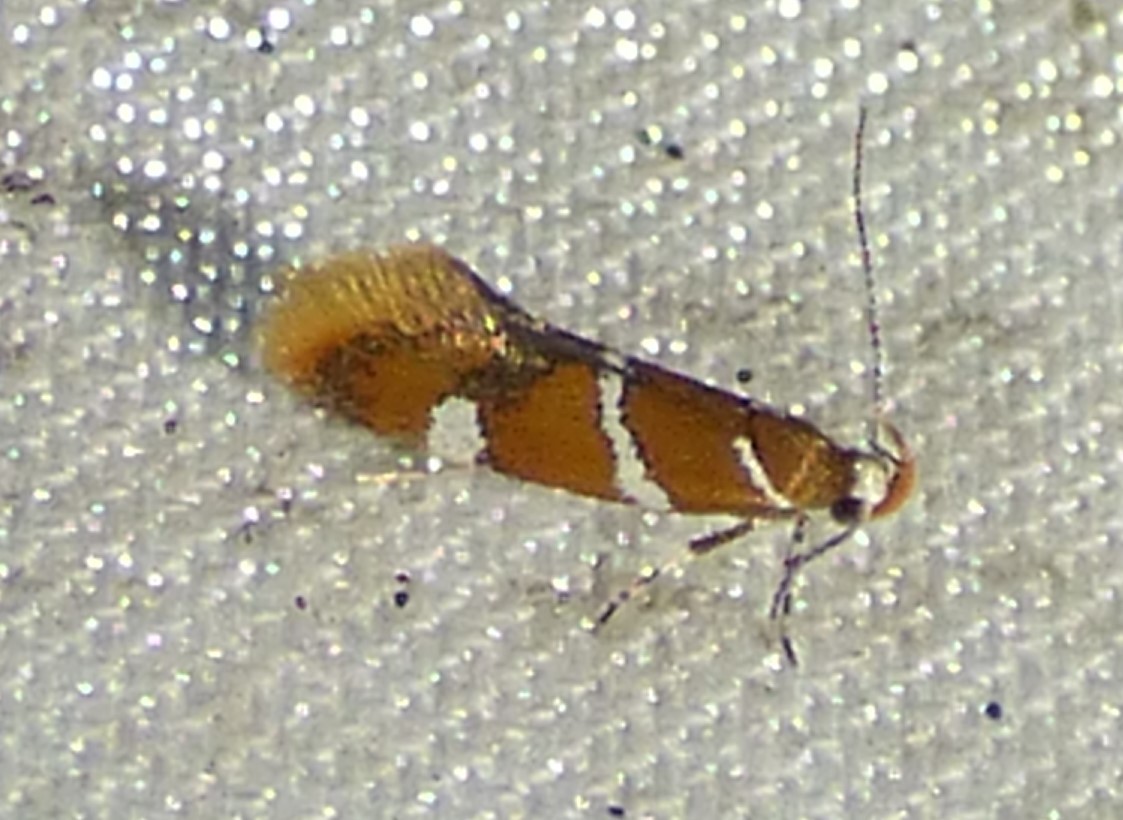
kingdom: Animalia
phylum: Arthropoda
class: Insecta
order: Lepidoptera
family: Oecophoridae
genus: Promalactis
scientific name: Promalactis suzukiella
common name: Moth
